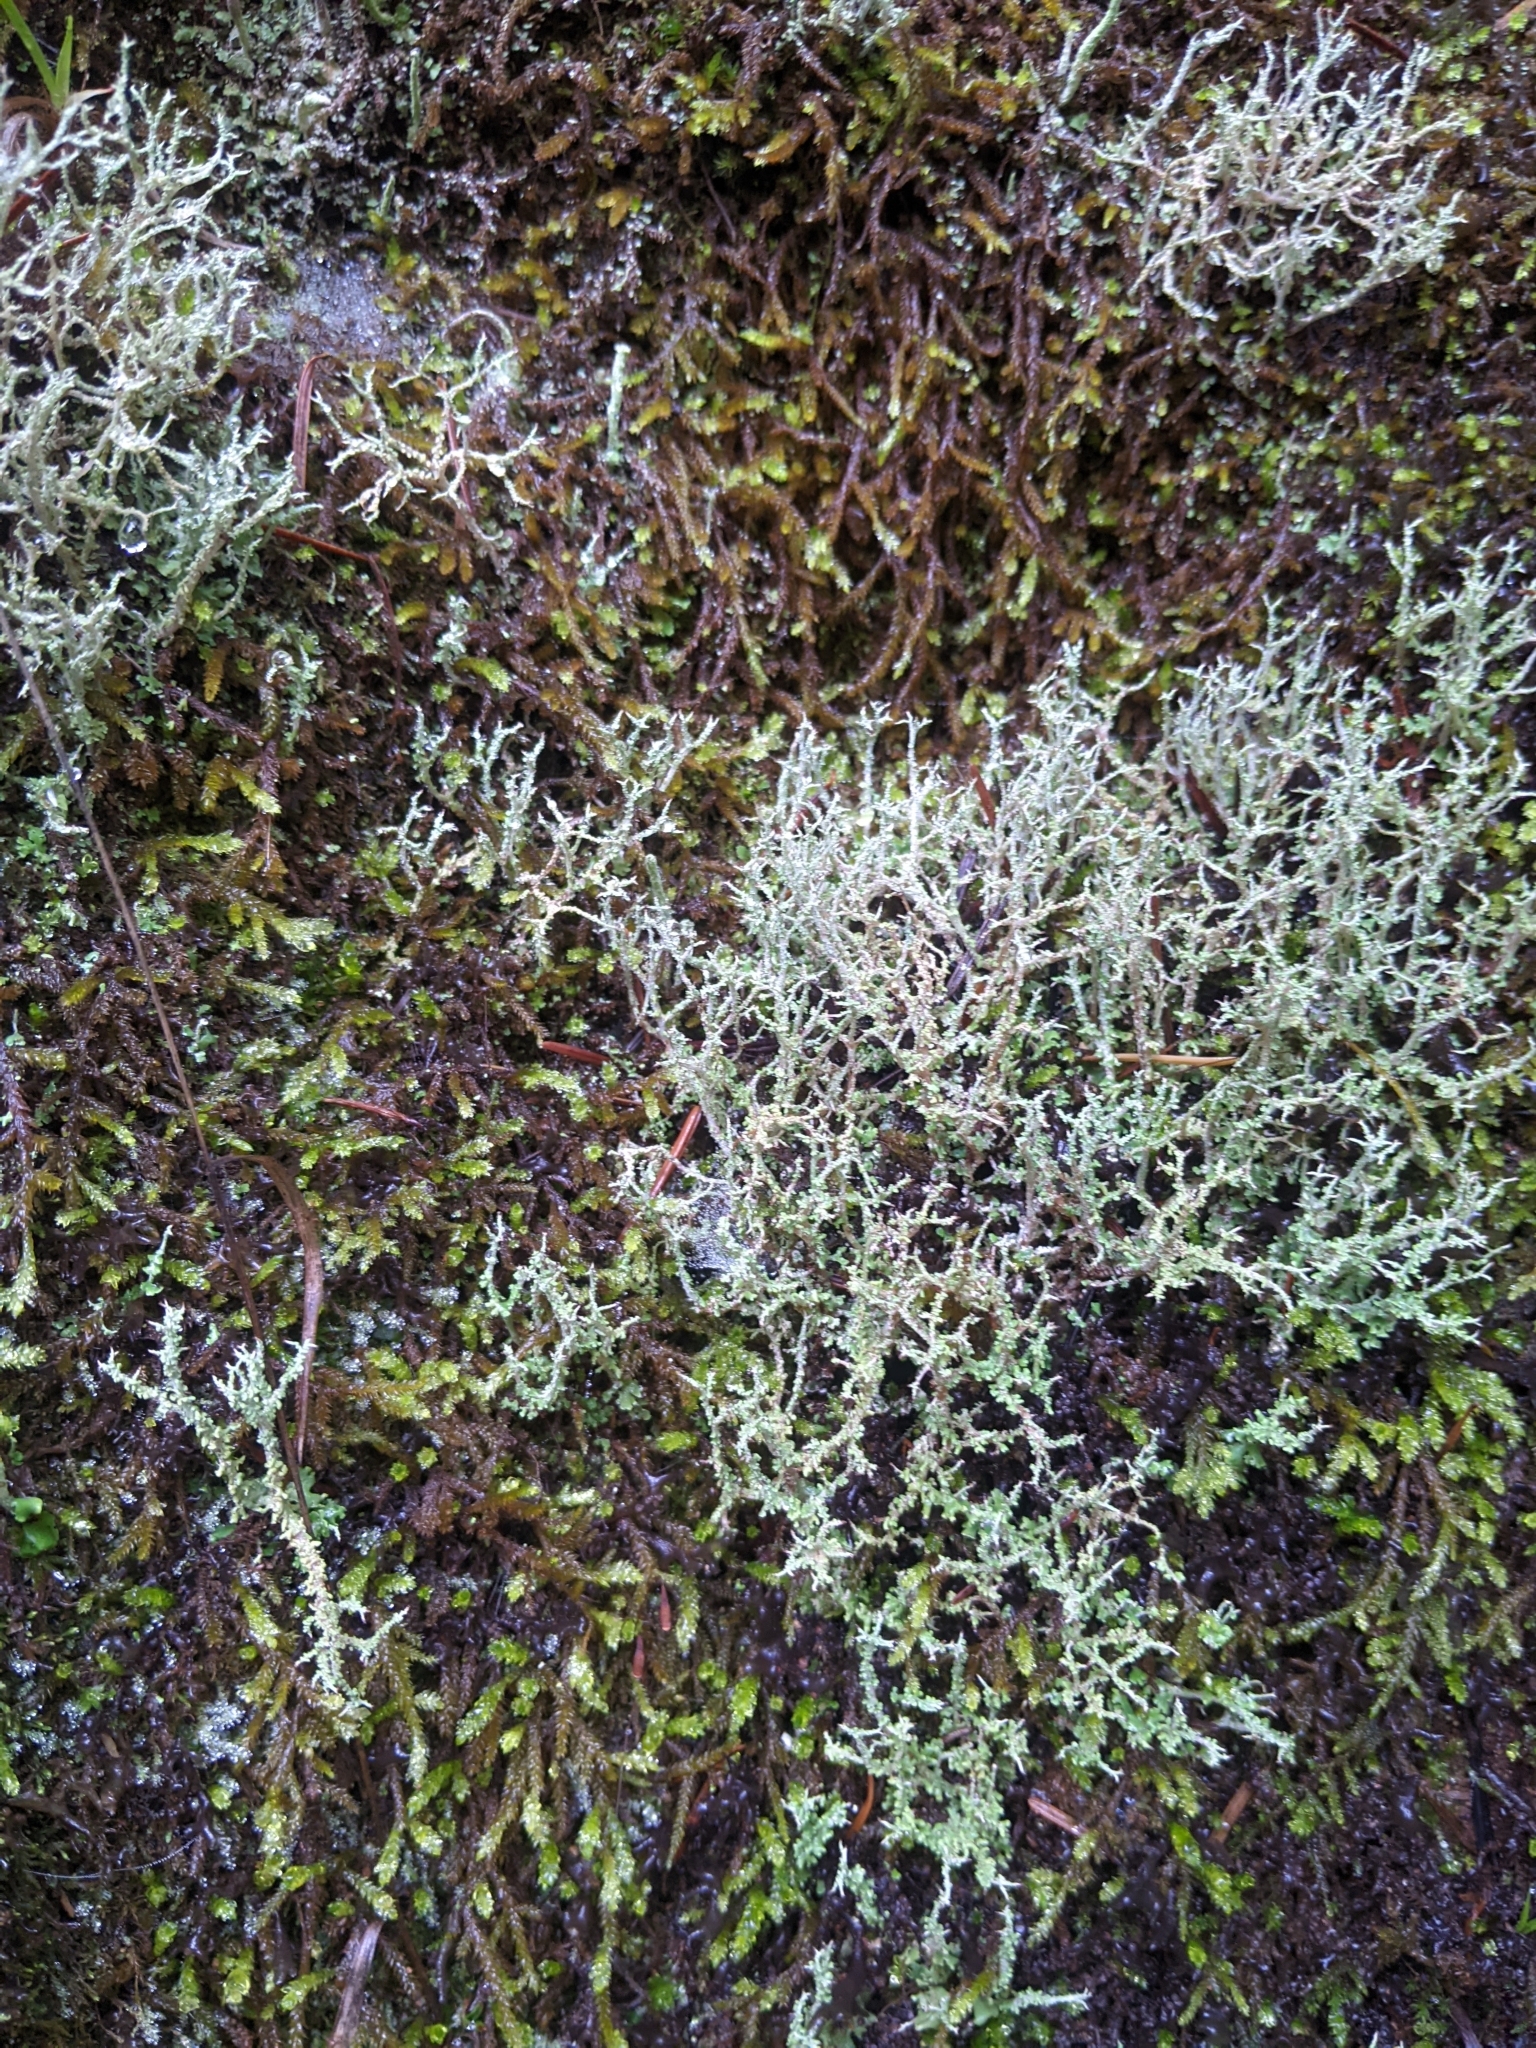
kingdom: Fungi
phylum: Ascomycota
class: Lecanoromycetes
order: Lecanorales
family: Cladoniaceae
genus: Cladonia
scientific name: Cladonia furcata
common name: Many-forked cladonia
